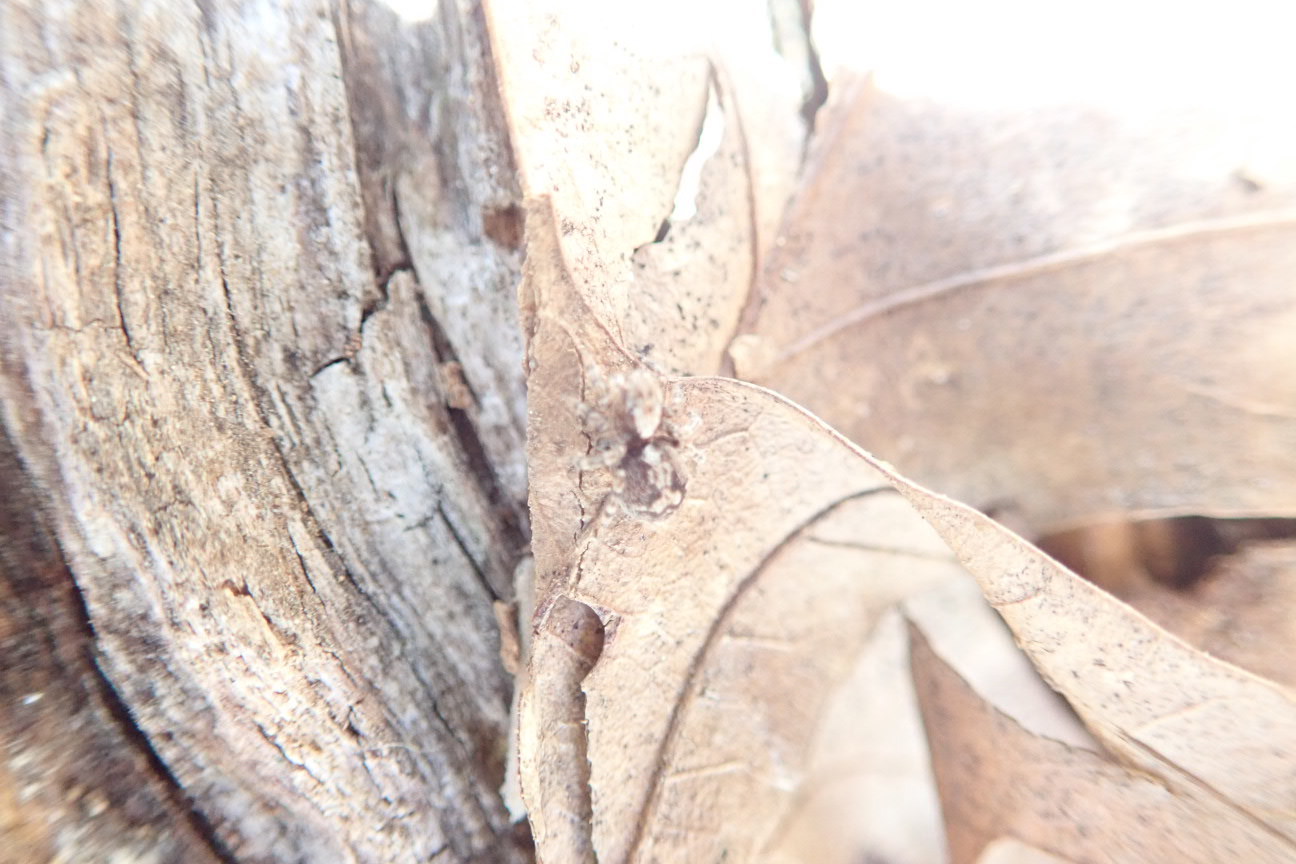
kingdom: Animalia
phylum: Arthropoda
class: Arachnida
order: Araneae
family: Salticidae
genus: Naphrys
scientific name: Naphrys pulex
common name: Flea jumping spider
